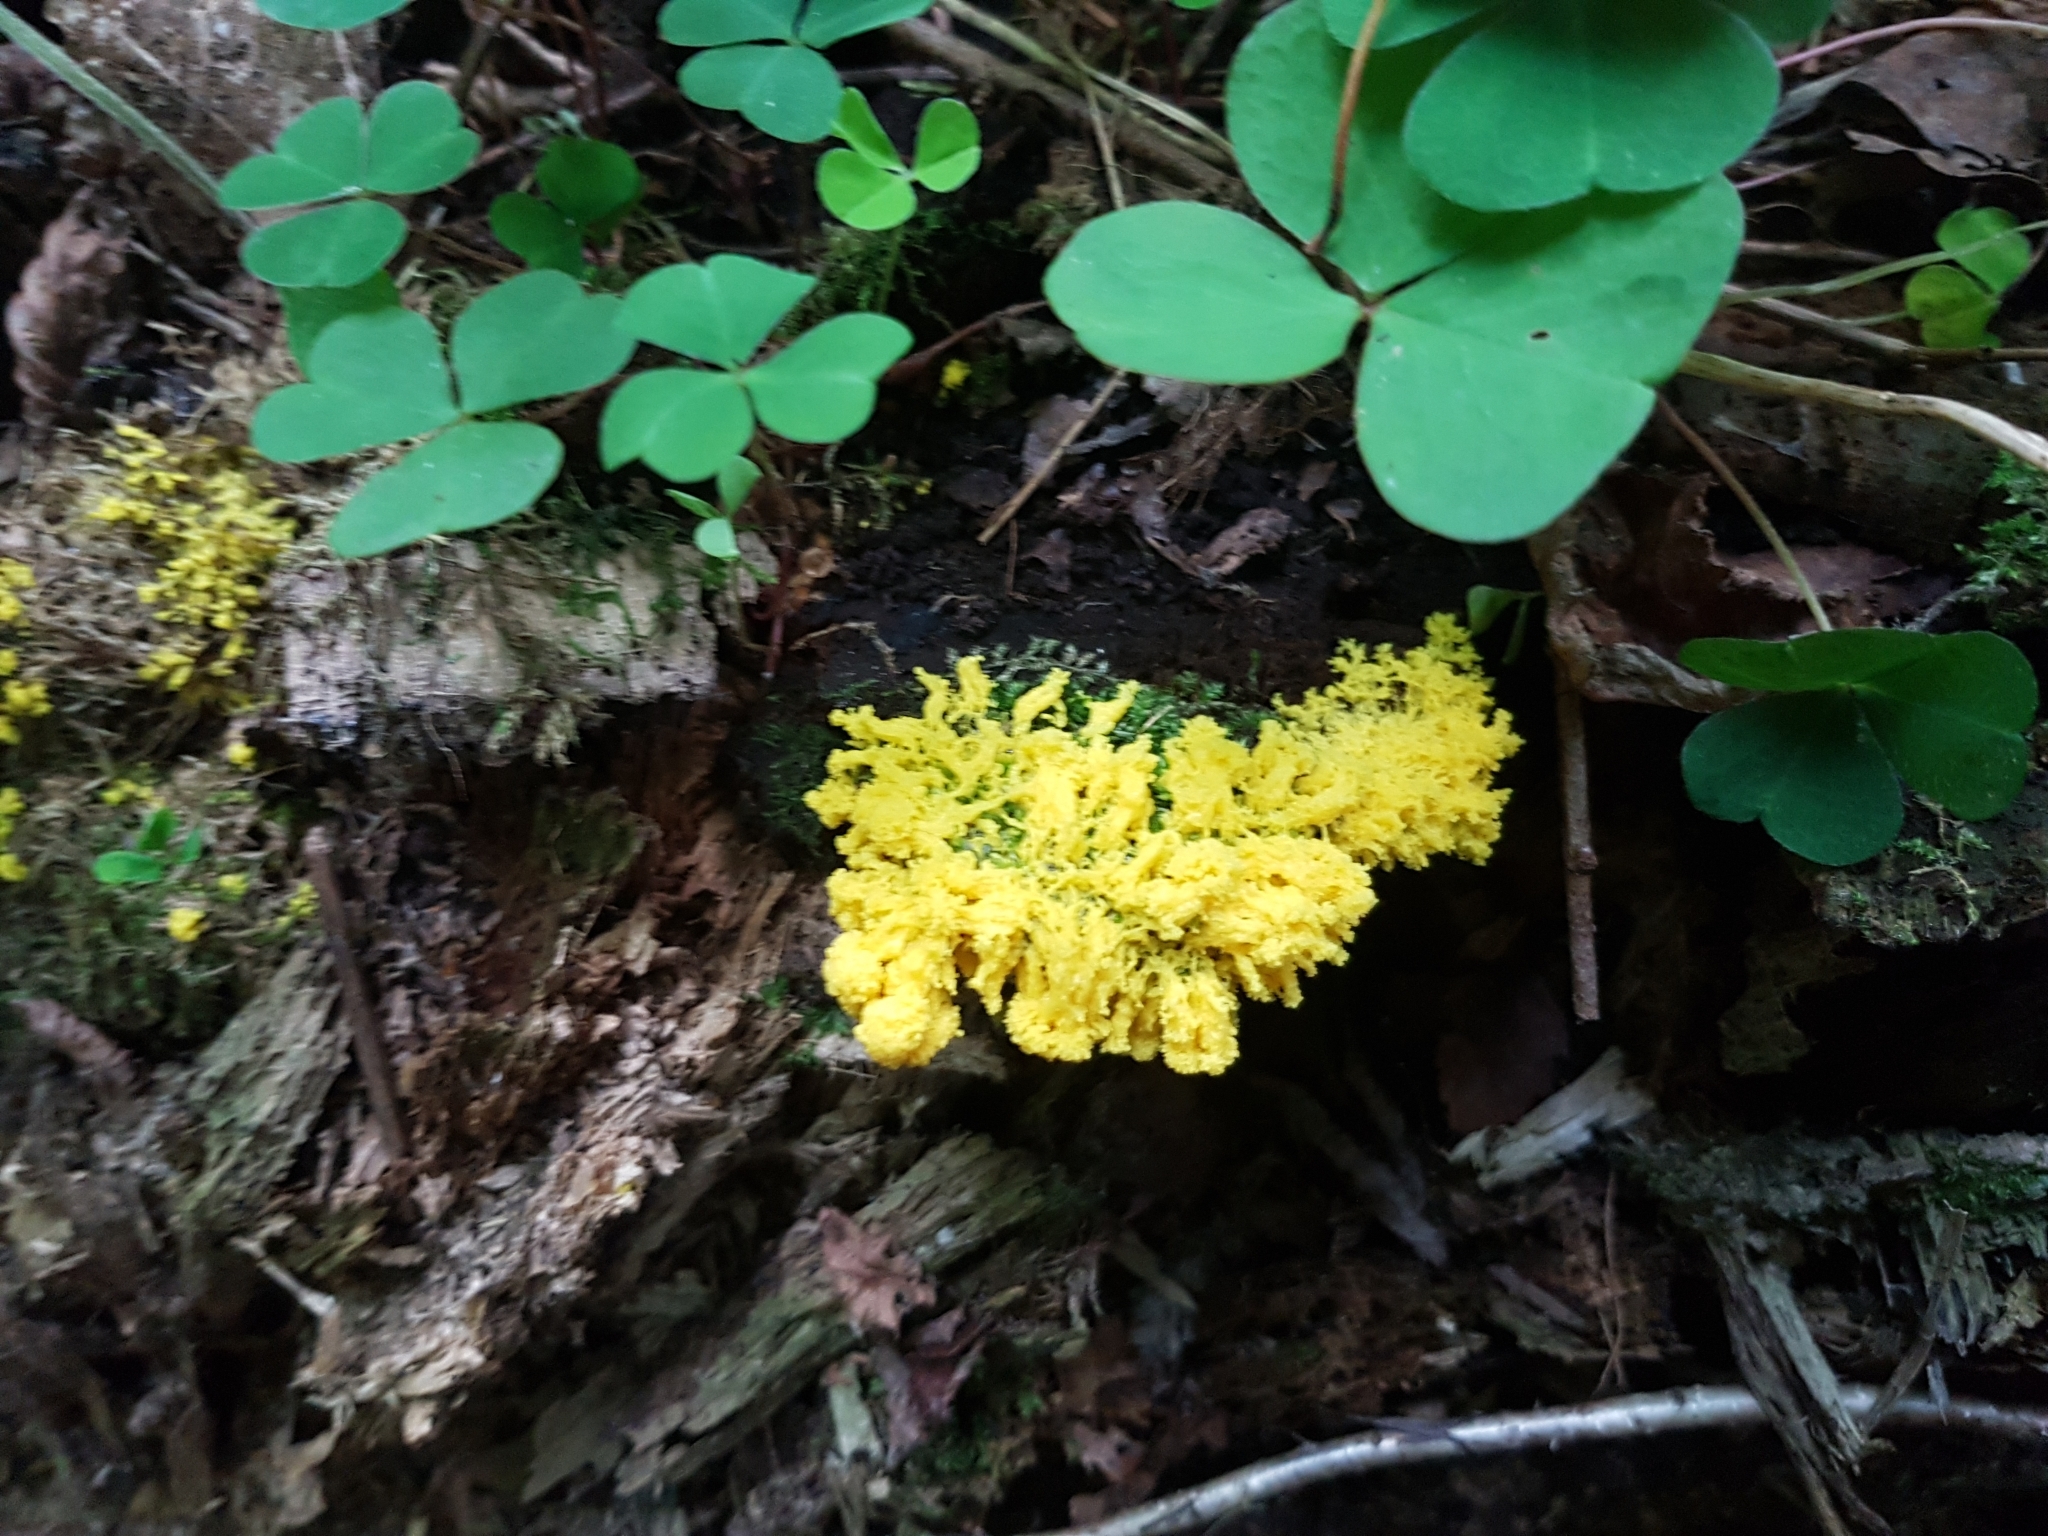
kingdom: Protozoa
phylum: Mycetozoa
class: Myxomycetes
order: Physarales
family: Physaraceae
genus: Fuligo
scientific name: Fuligo septica
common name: Dog vomit slime mold
